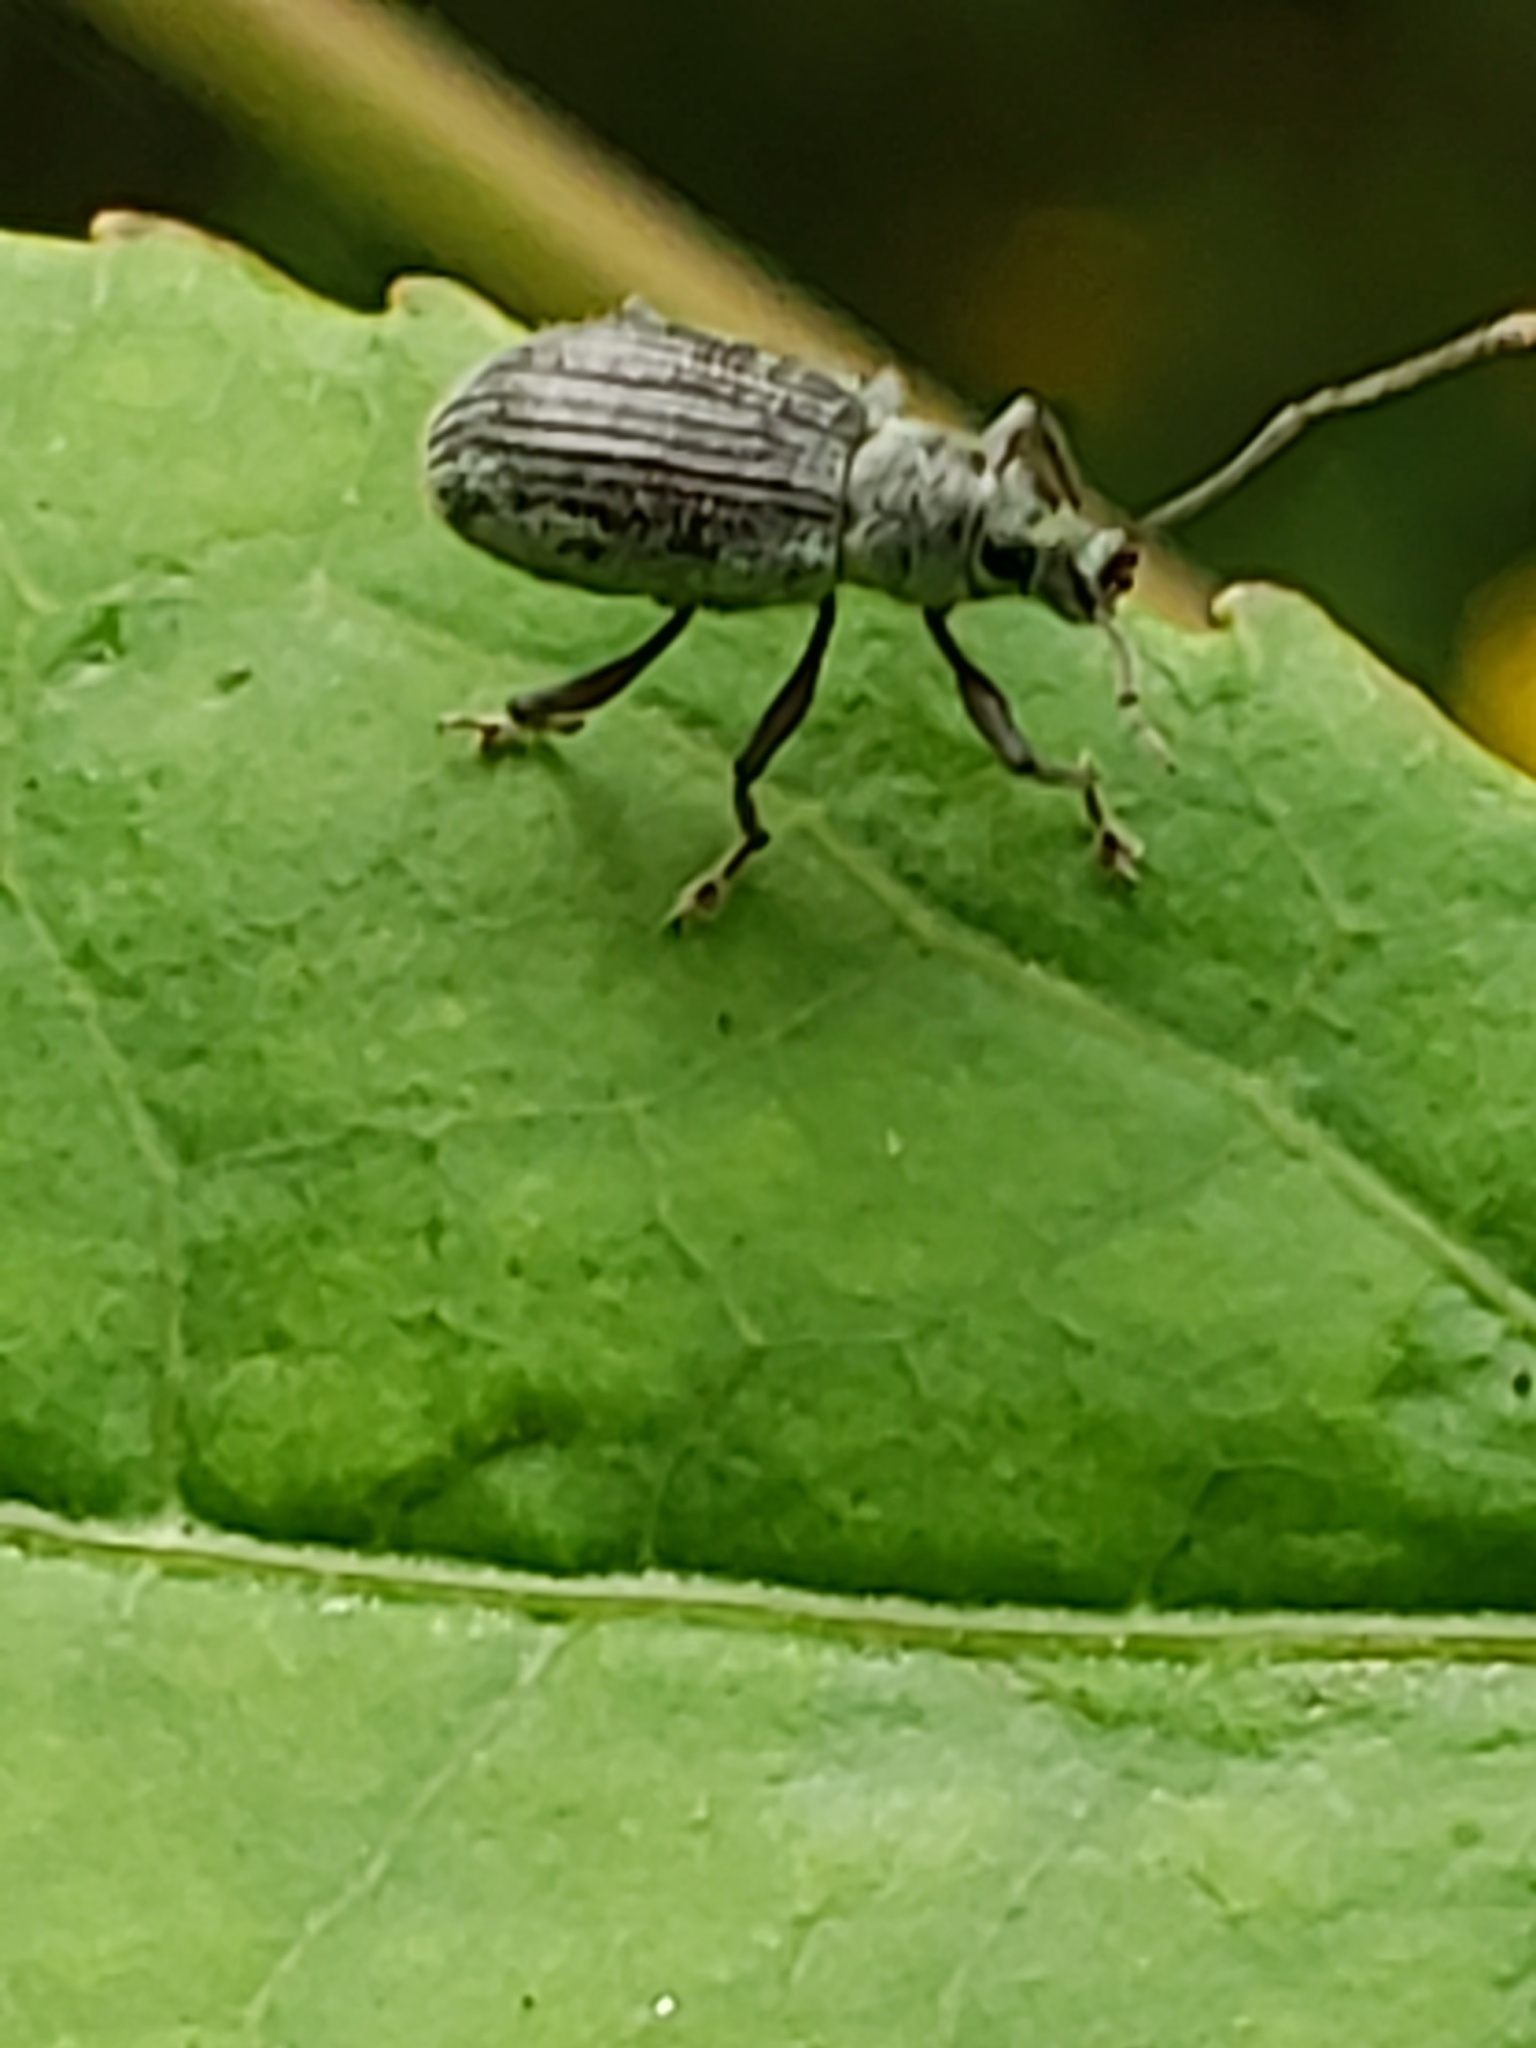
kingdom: Animalia
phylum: Arthropoda
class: Insecta
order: Coleoptera
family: Curculionidae
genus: Cyrtepistomus
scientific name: Cyrtepistomus castaneus
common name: Weevil
